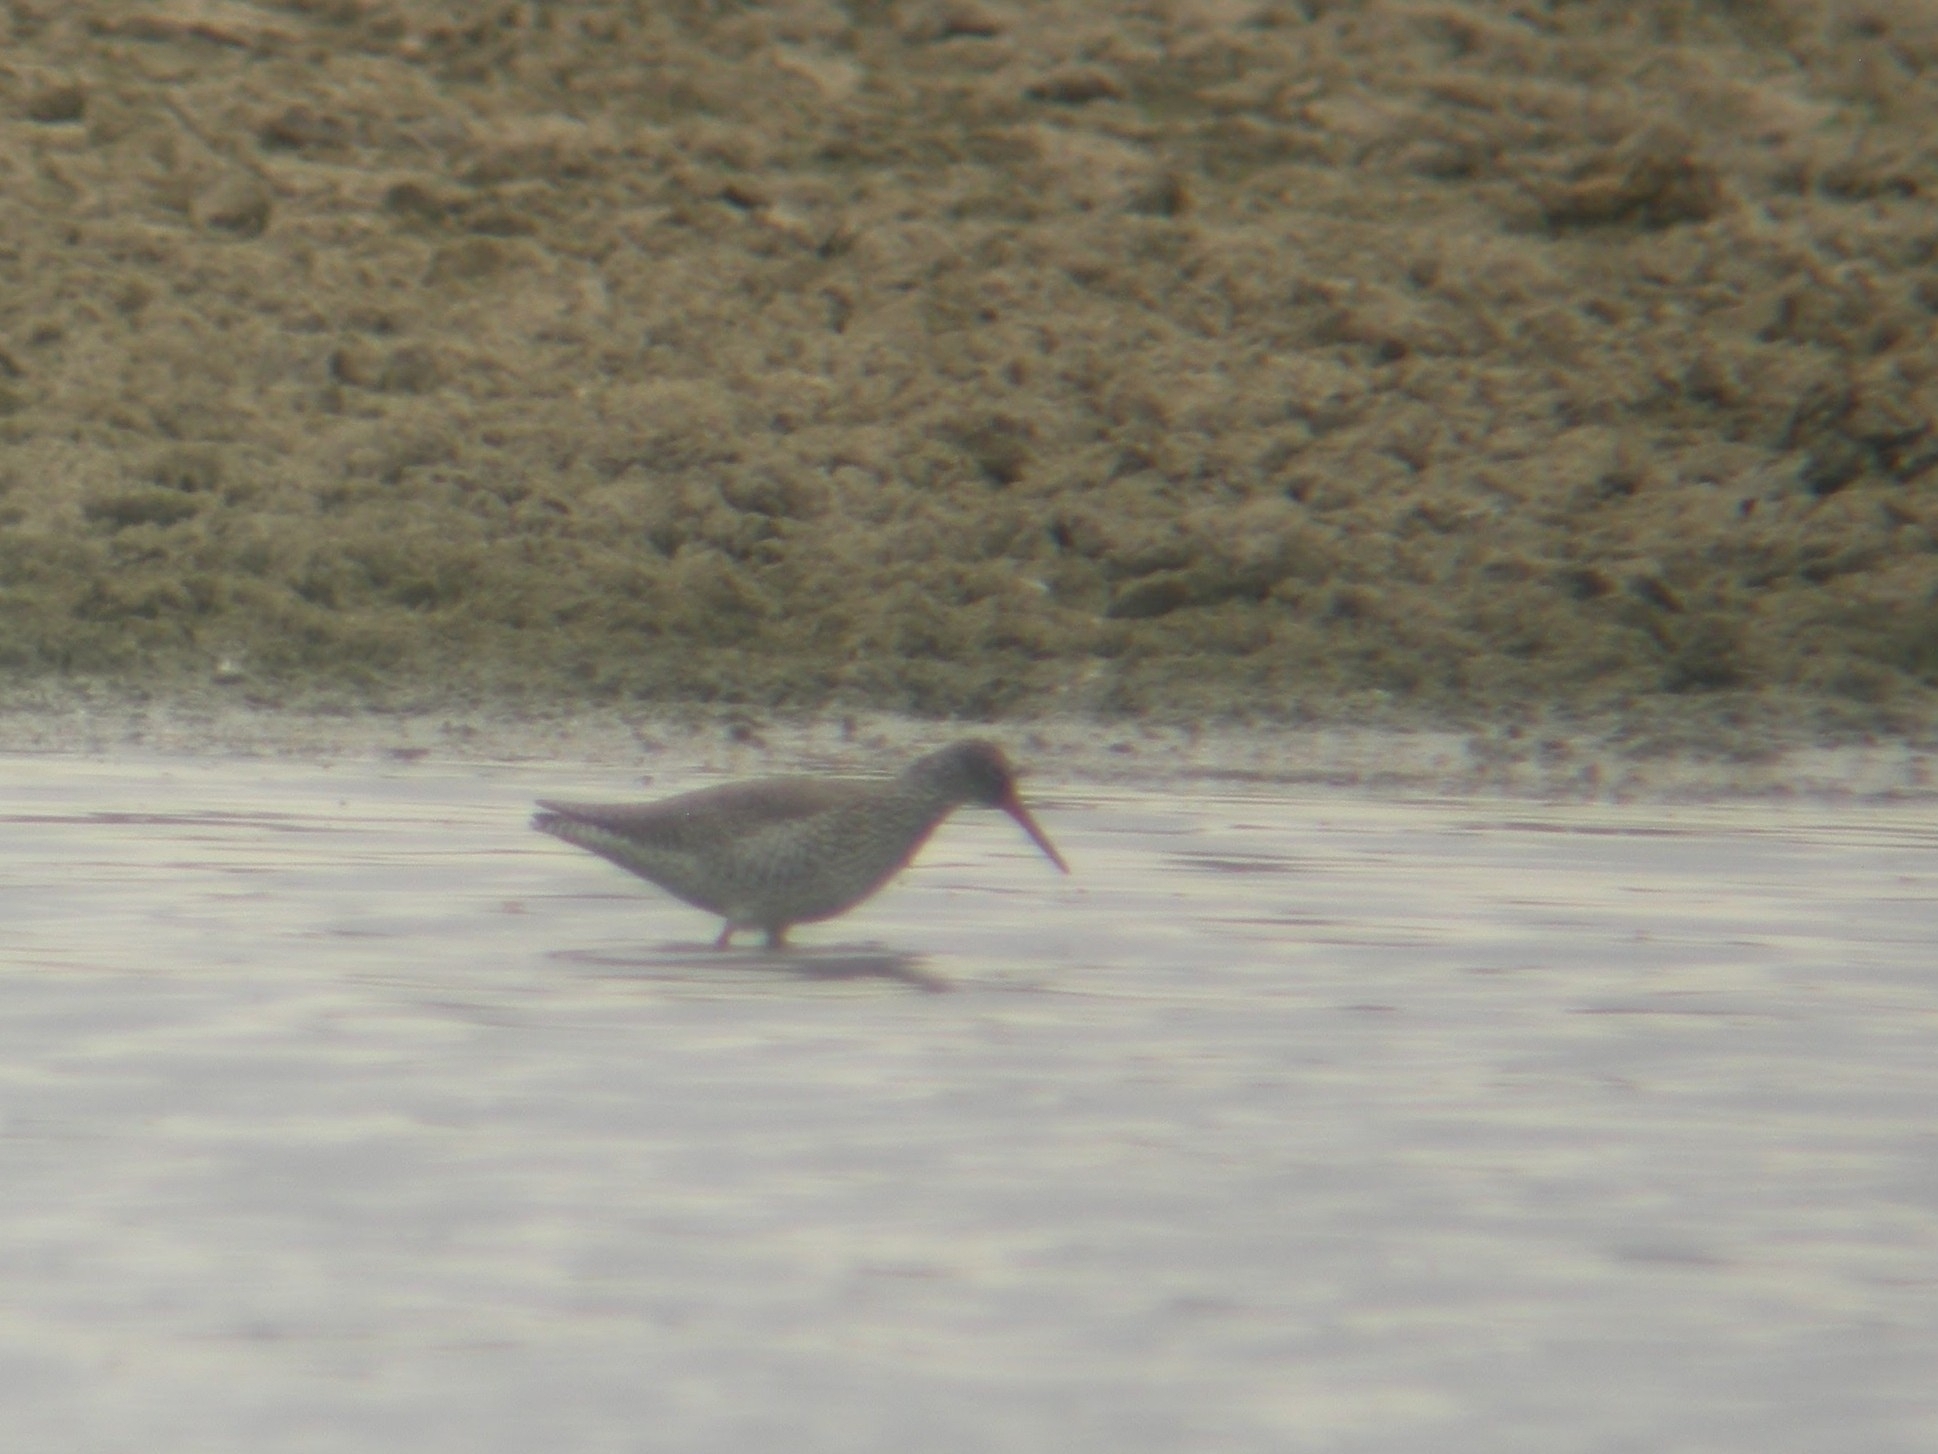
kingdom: Animalia
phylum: Chordata
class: Aves
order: Charadriiformes
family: Scolopacidae
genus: Tringa
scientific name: Tringa totanus
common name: Common redshank
